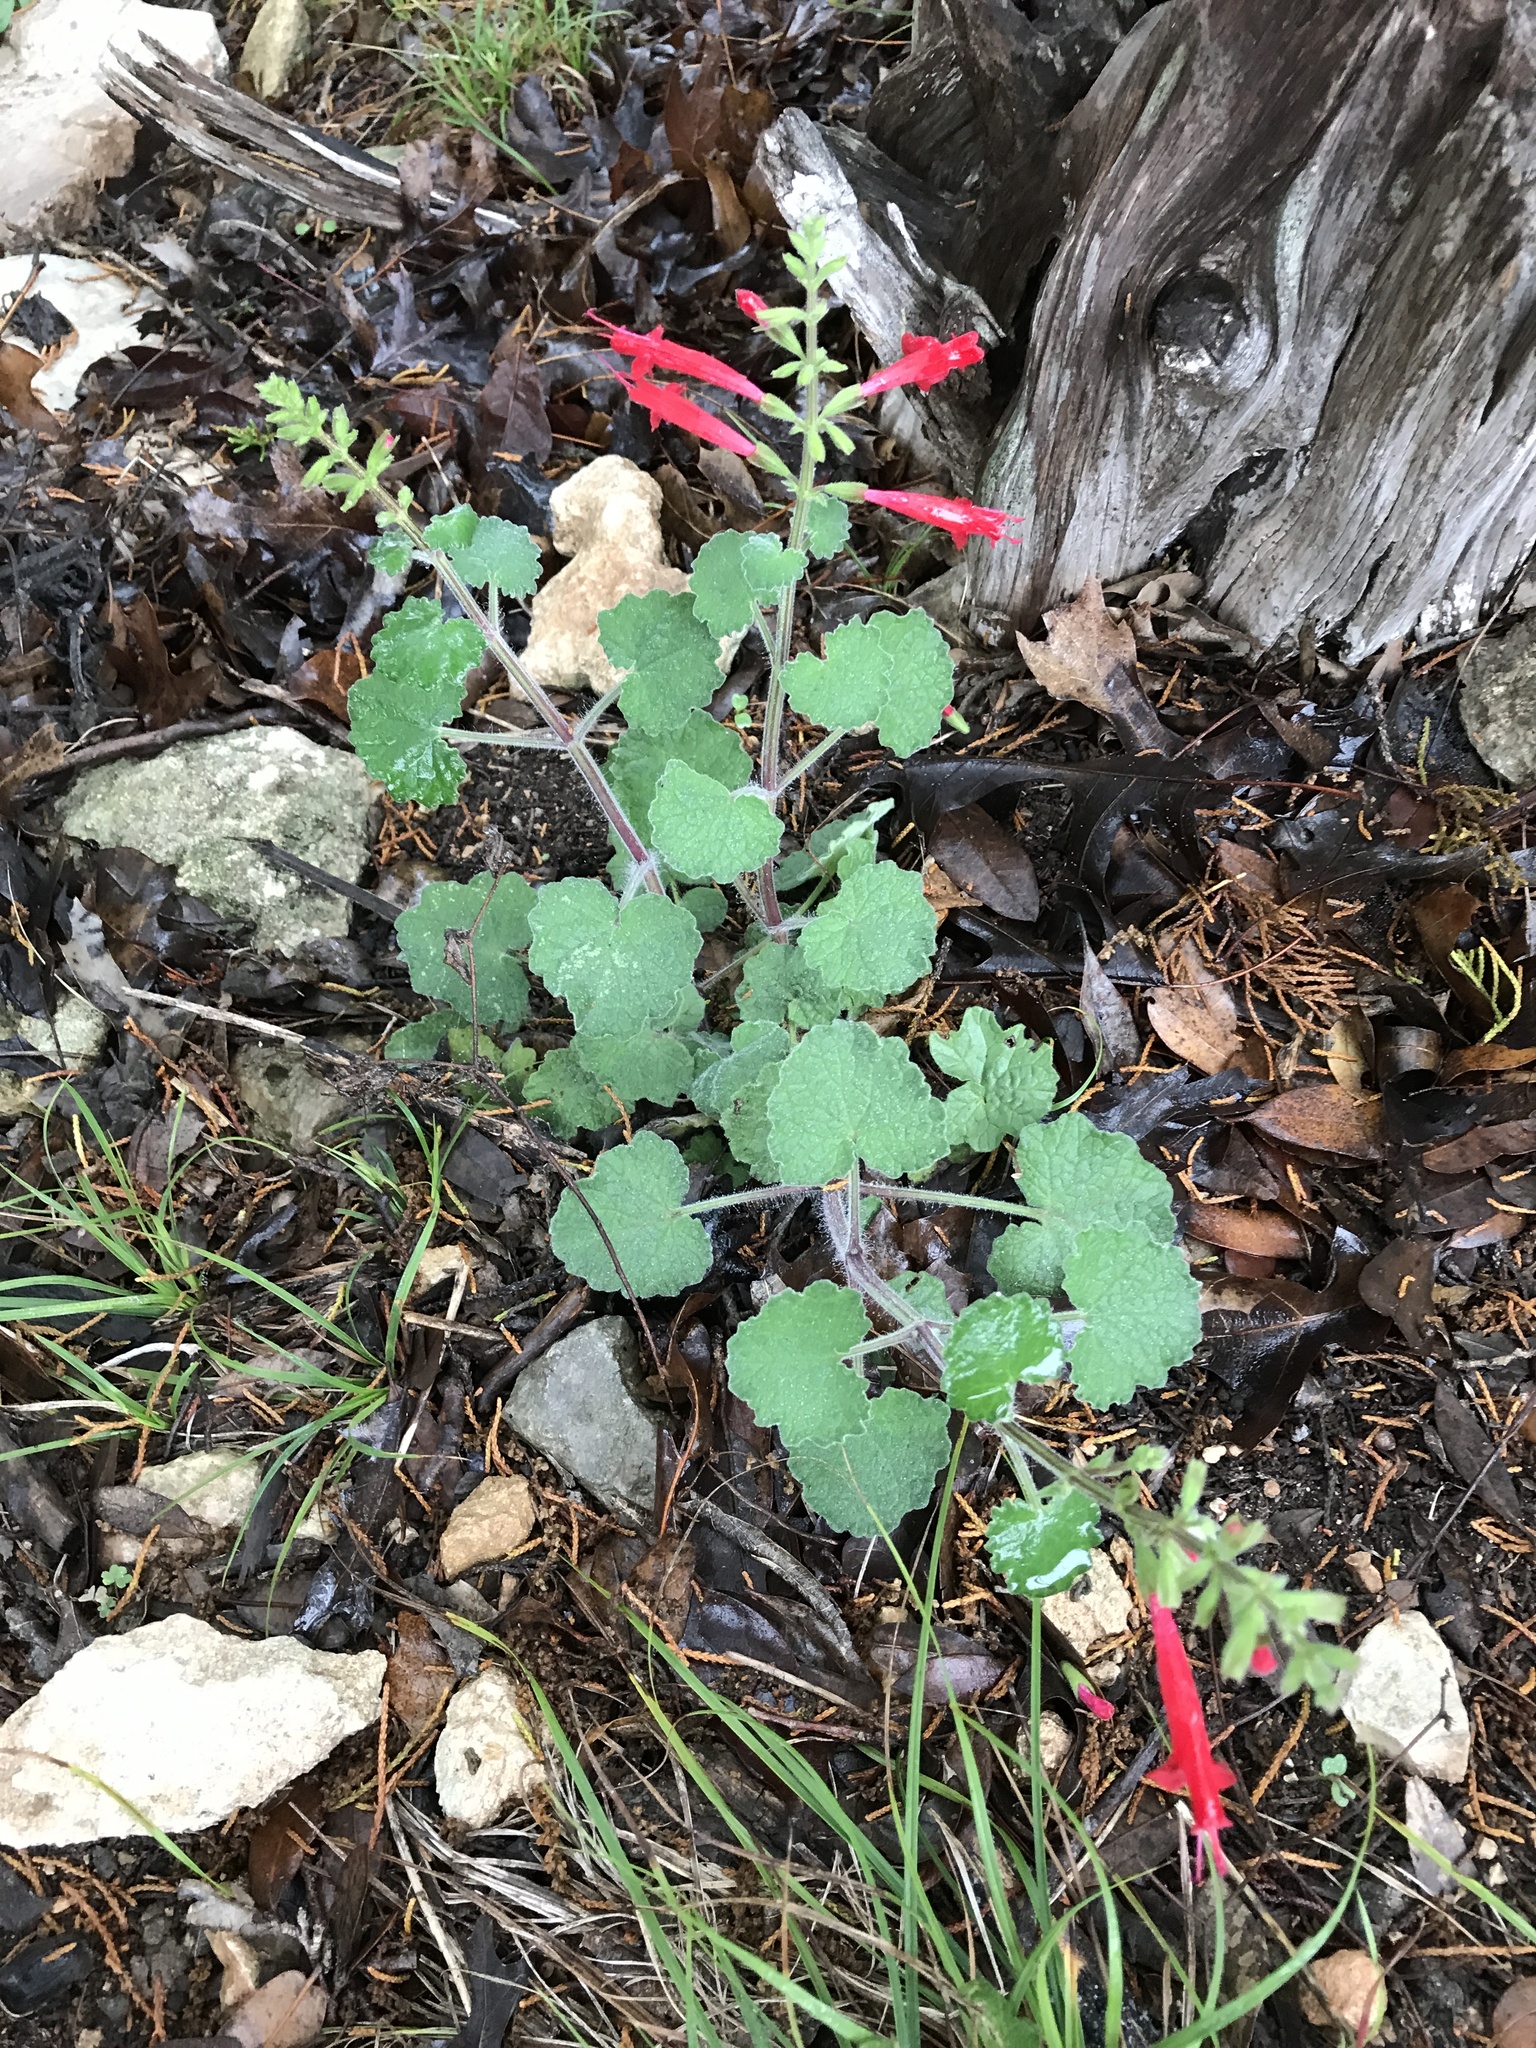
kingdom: Plantae
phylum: Tracheophyta
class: Magnoliopsida
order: Lamiales
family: Lamiaceae
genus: Salvia
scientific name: Salvia roemeriana
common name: Cedar sage
